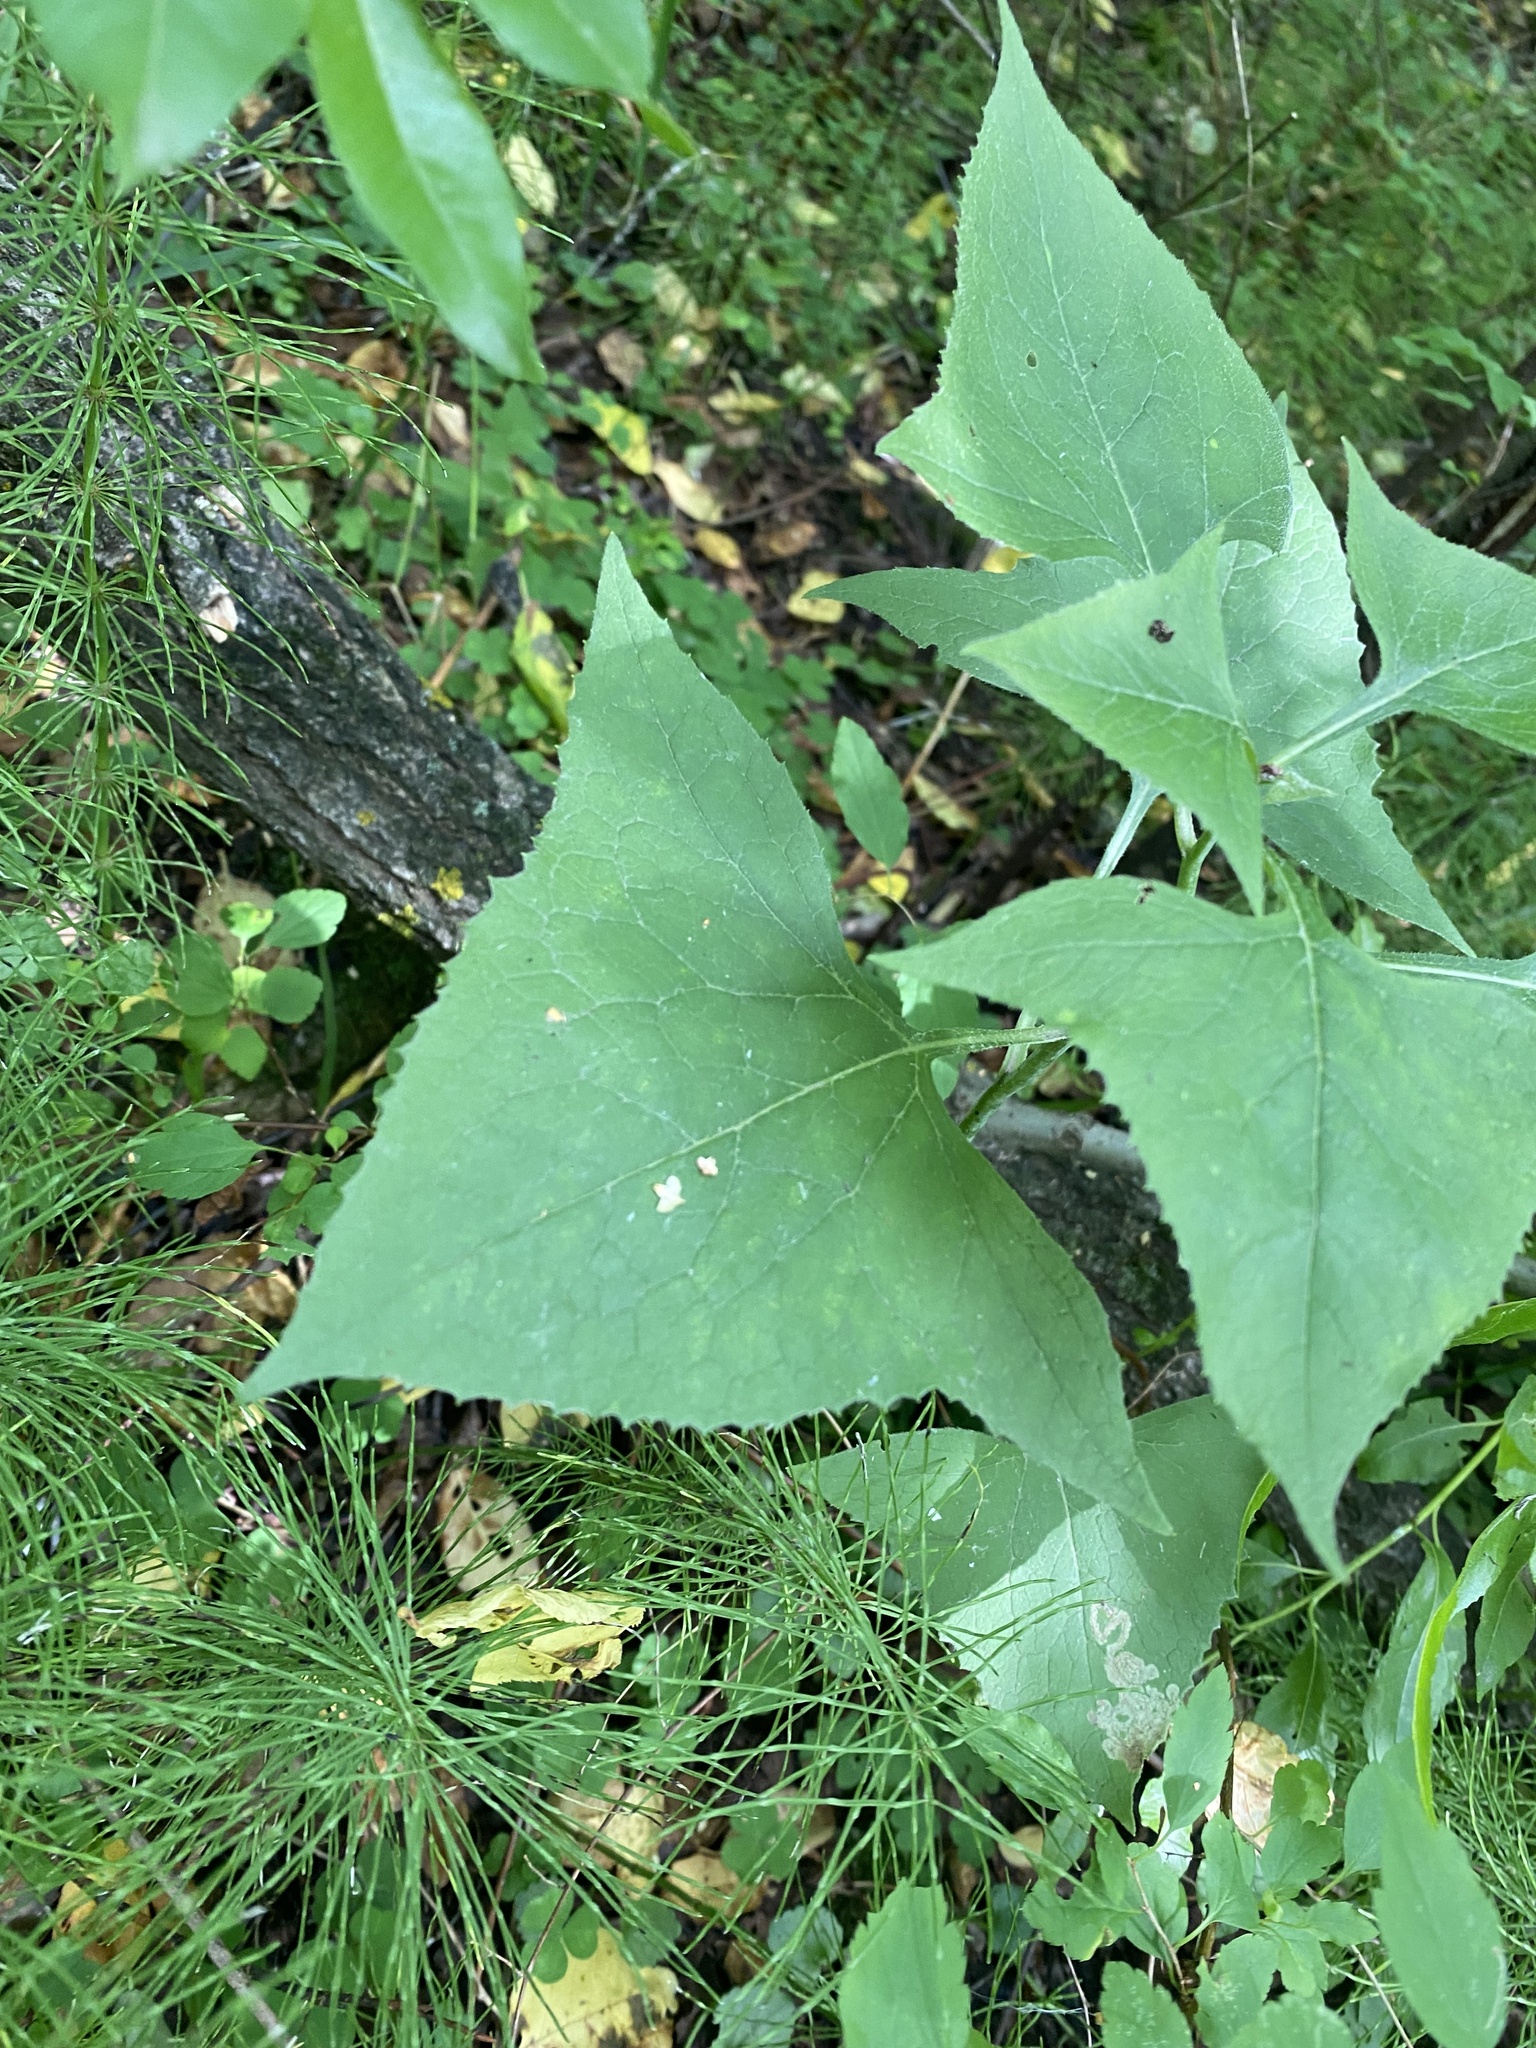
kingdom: Plantae
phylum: Tracheophyta
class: Magnoliopsida
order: Asterales
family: Asteraceae
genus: Parasenecio
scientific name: Parasenecio hastatus
